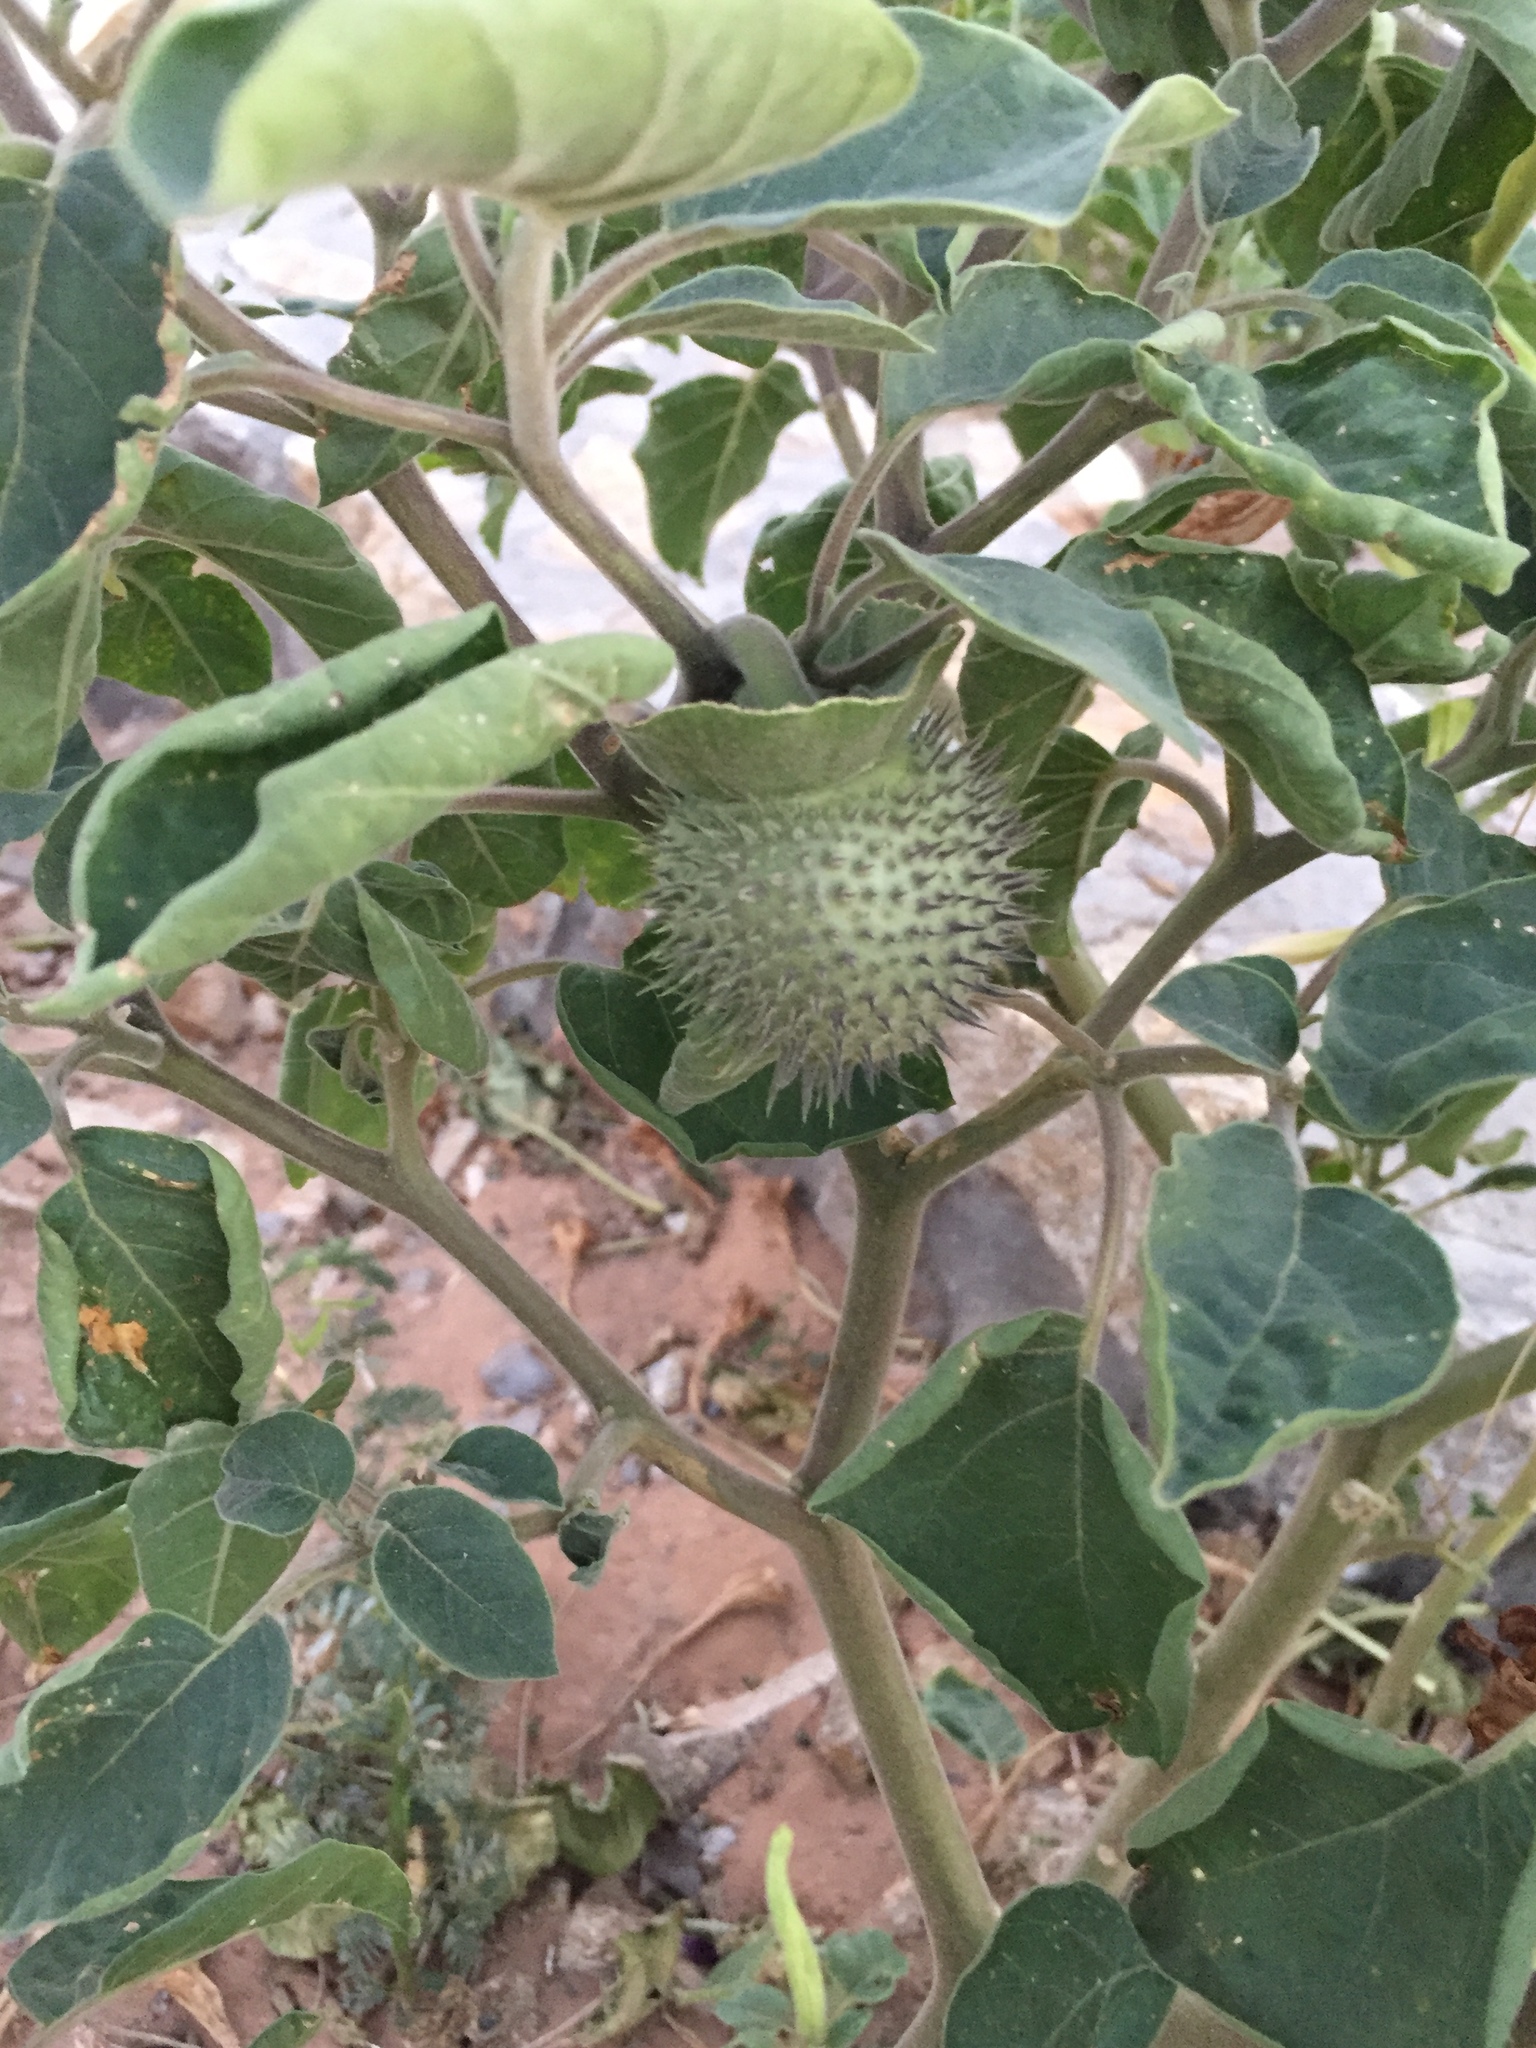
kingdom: Plantae
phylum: Tracheophyta
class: Magnoliopsida
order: Solanales
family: Solanaceae
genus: Datura
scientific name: Datura wrightii
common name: Sacred thorn-apple
